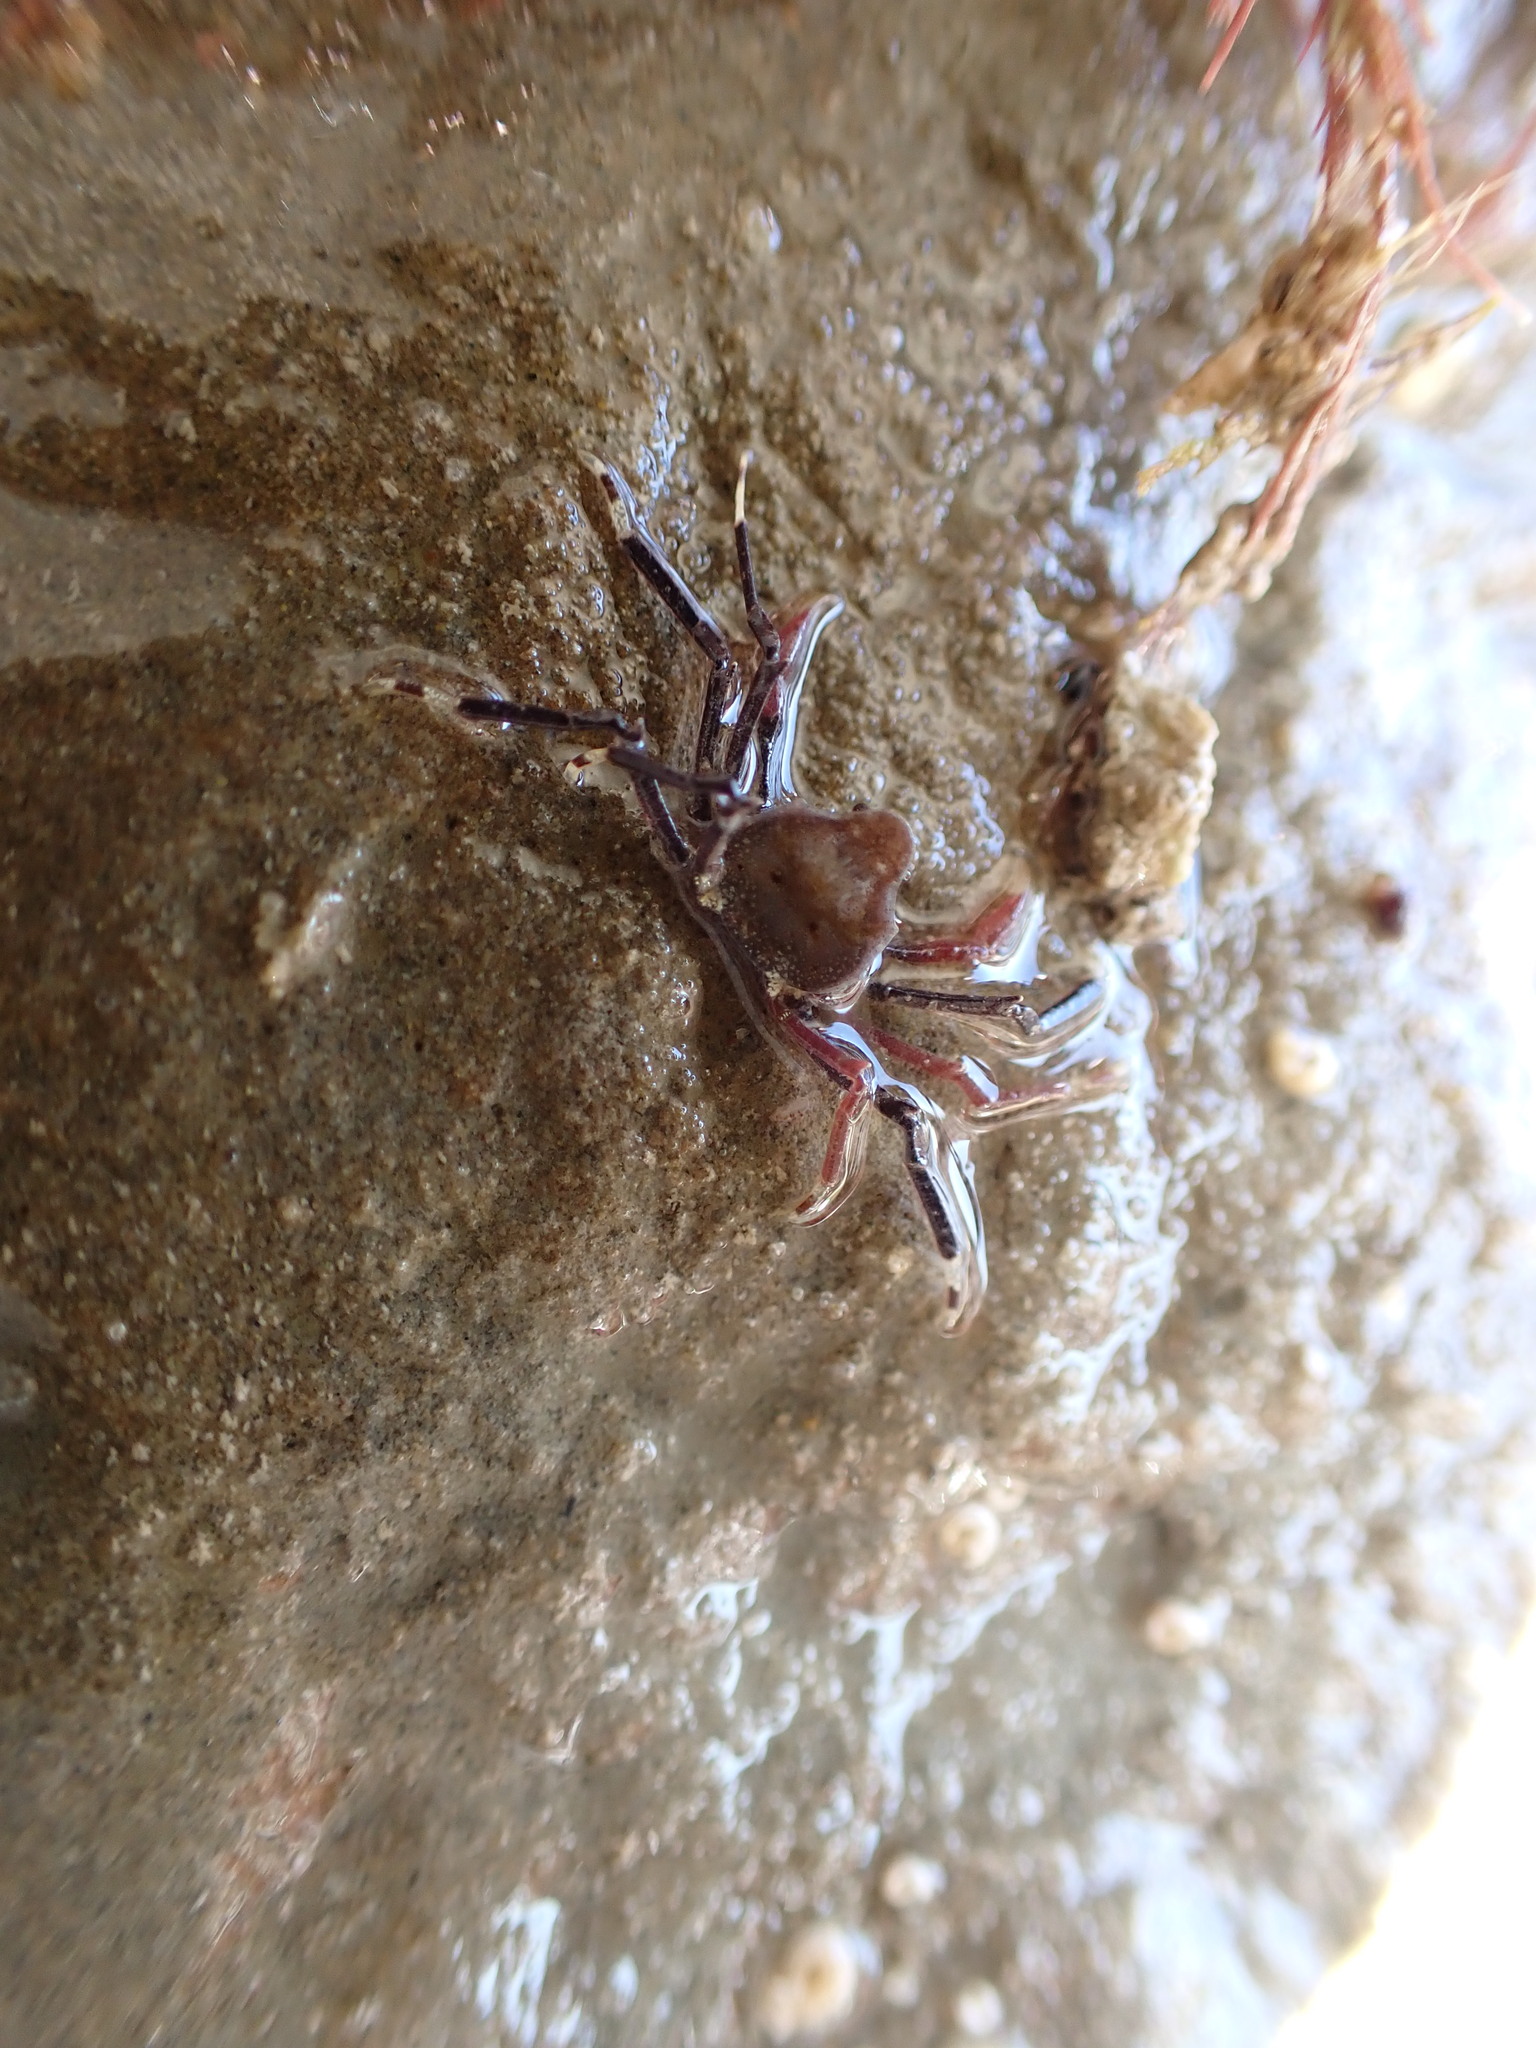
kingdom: Animalia
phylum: Arthropoda
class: Malacostraca
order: Decapoda
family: Hymenosomatidae
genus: Elamena
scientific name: Elamena producta
